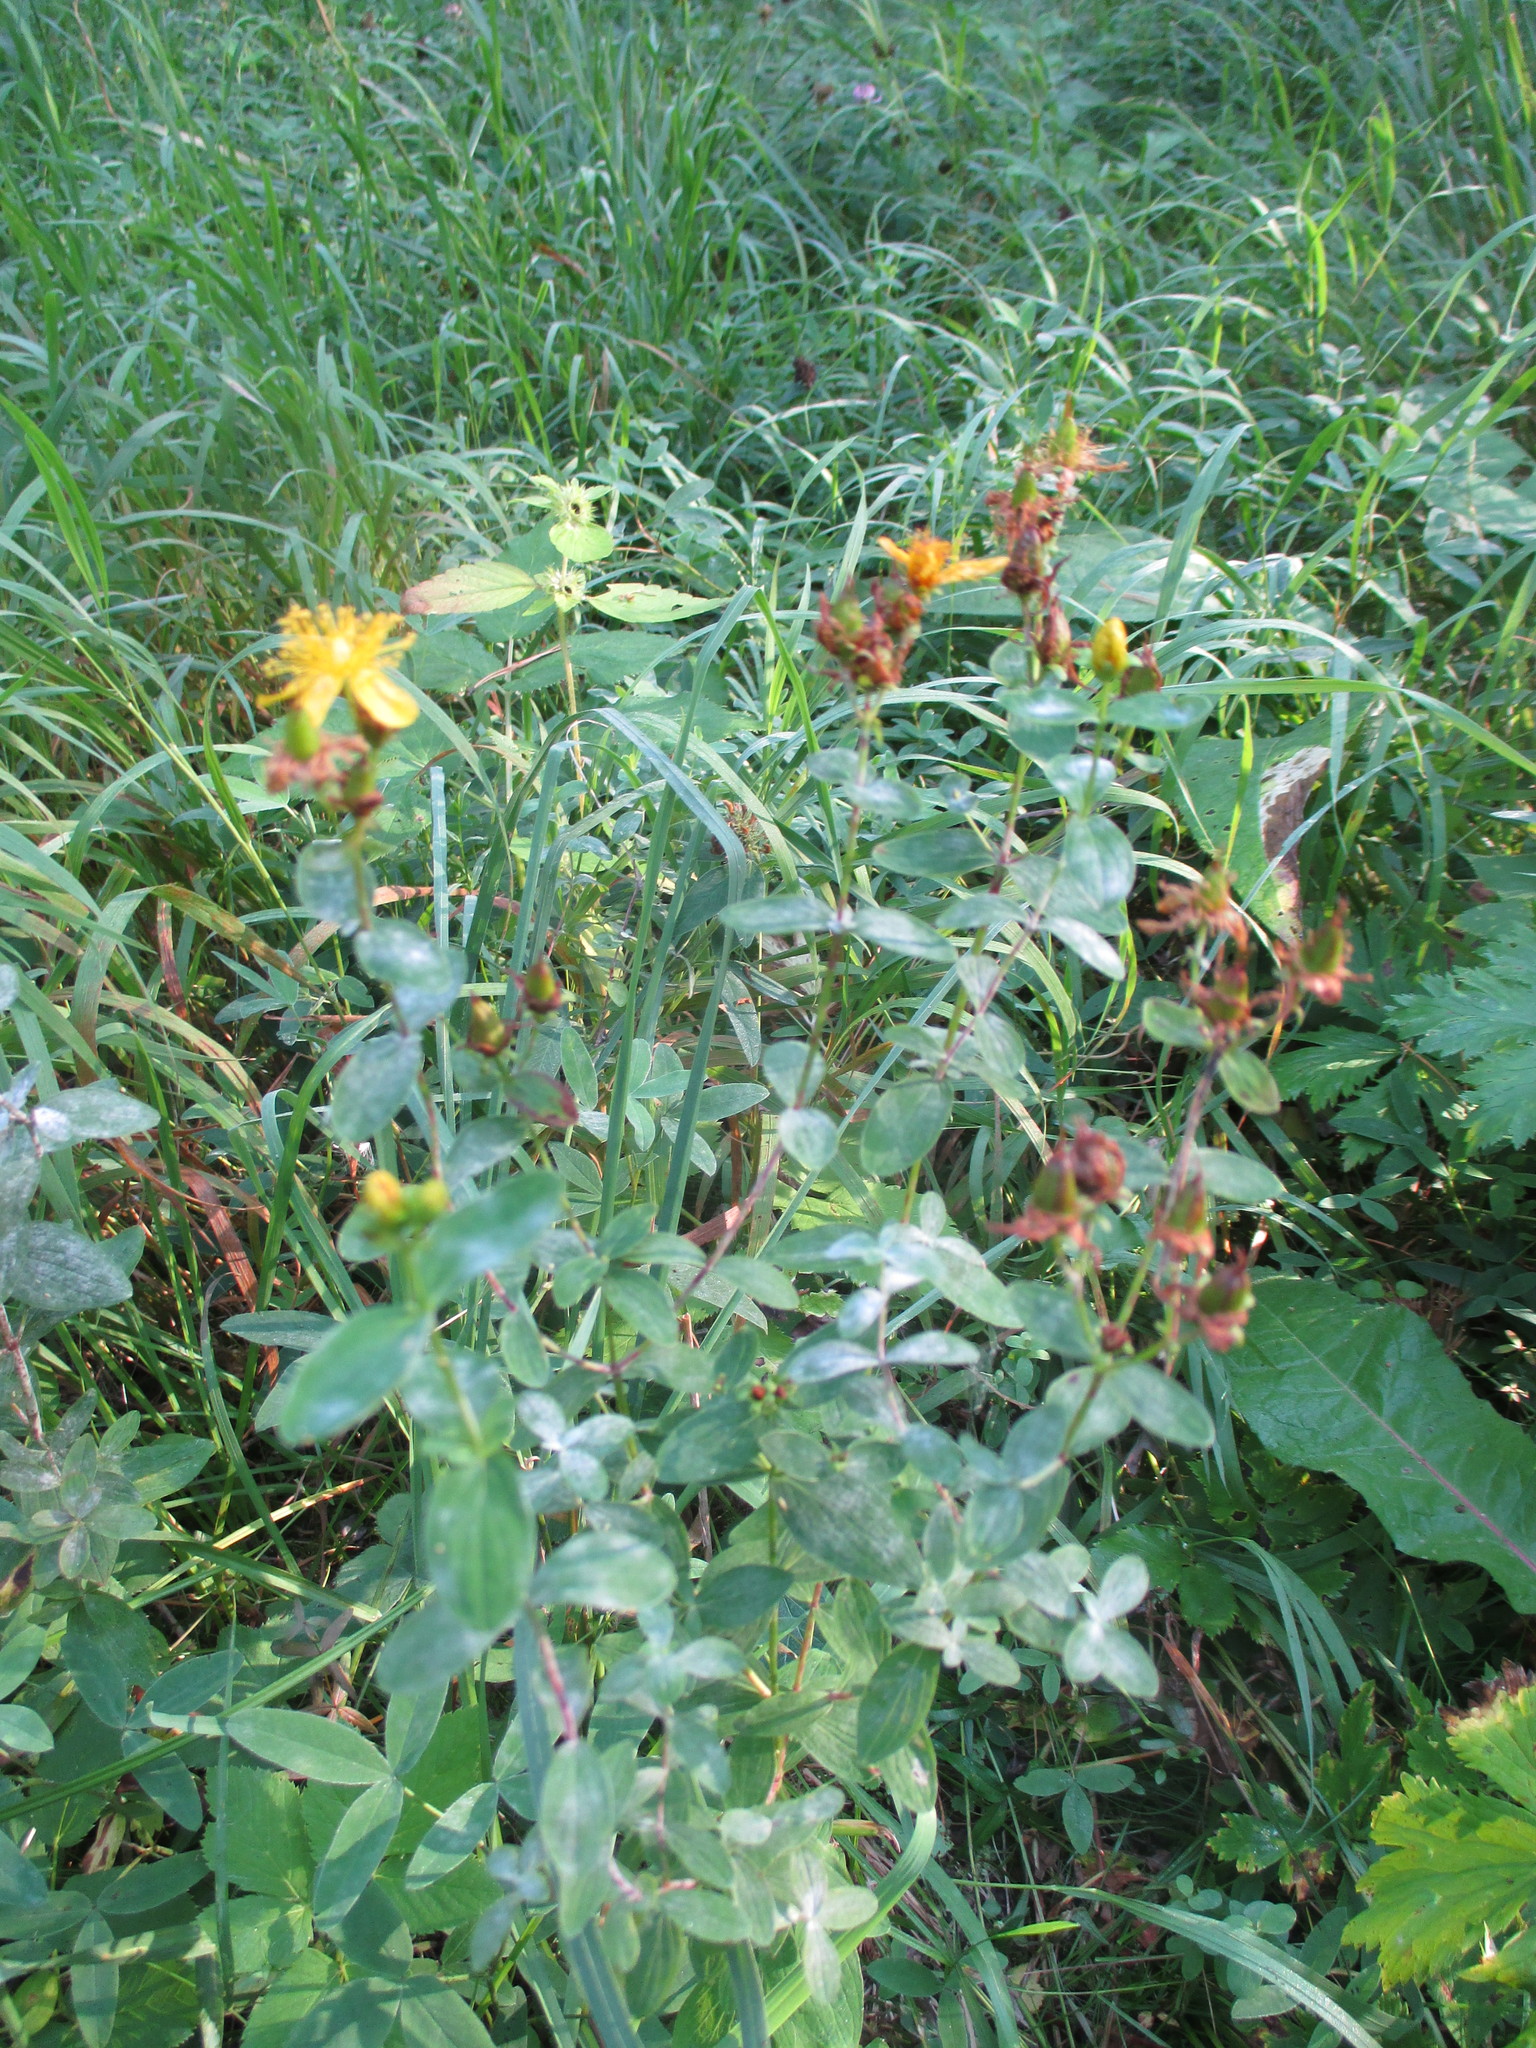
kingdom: Plantae
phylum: Tracheophyta
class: Magnoliopsida
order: Malpighiales
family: Hypericaceae
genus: Hypericum
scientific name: Hypericum maculatum
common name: Imperforate st. john's-wort
